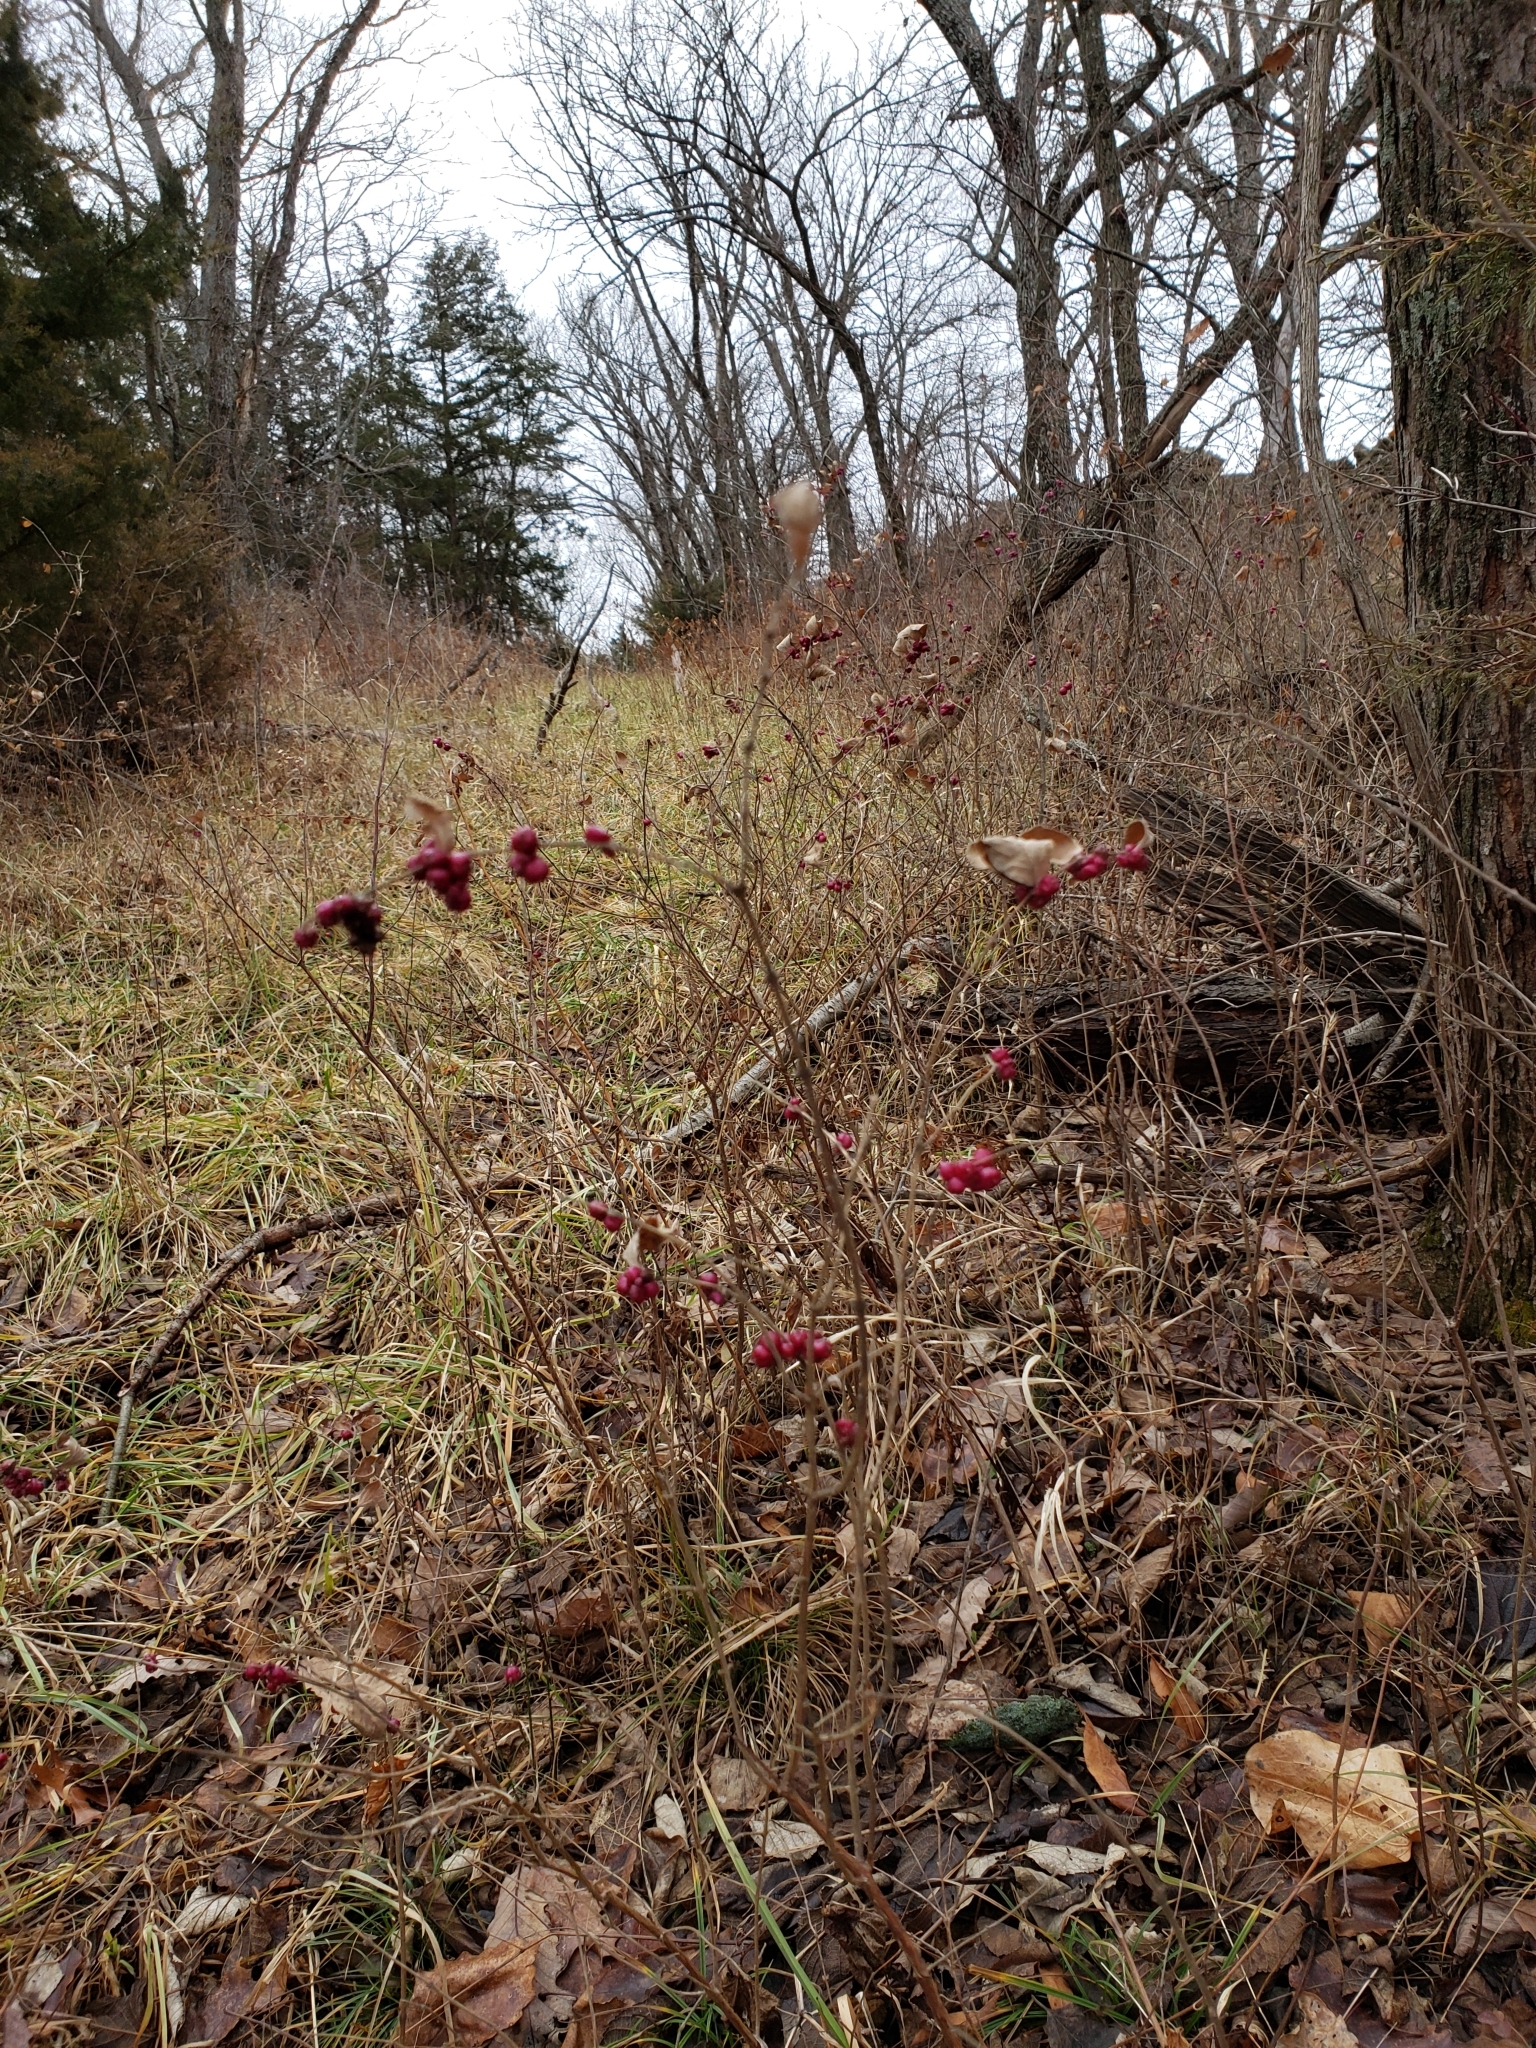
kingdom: Plantae
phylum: Tracheophyta
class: Magnoliopsida
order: Dipsacales
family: Caprifoliaceae
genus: Symphoricarpos
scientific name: Symphoricarpos orbiculatus
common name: Coralberry
